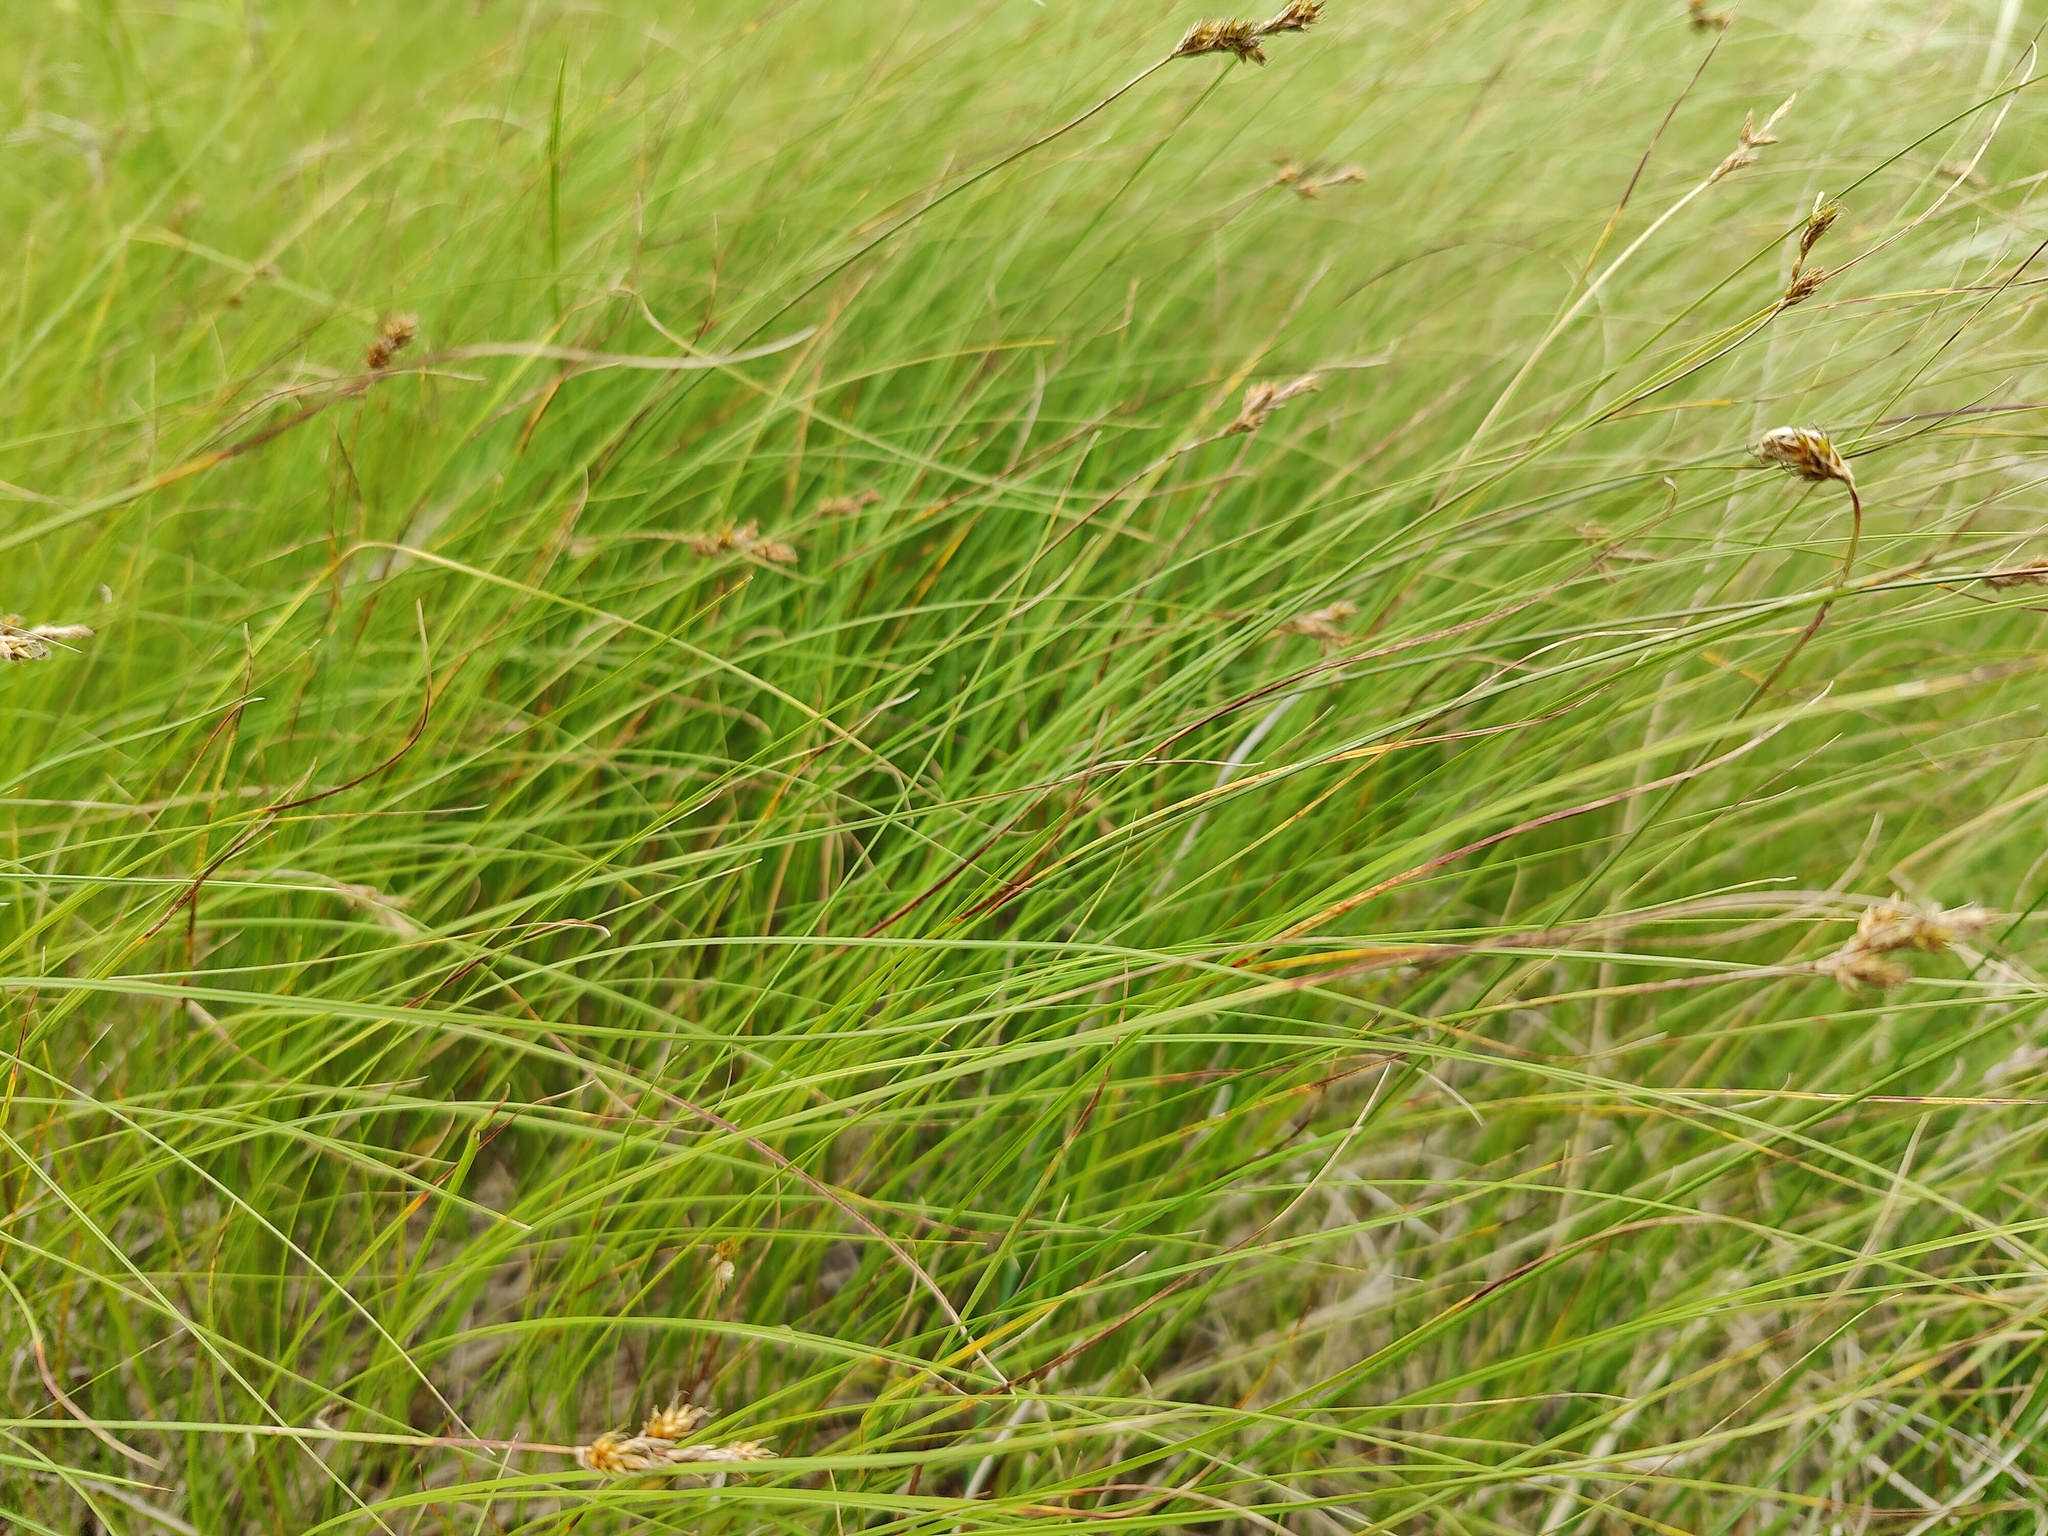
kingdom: Plantae
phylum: Tracheophyta
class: Liliopsida
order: Poales
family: Cyperaceae
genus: Carex
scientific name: Carex praecox
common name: Early sedge
